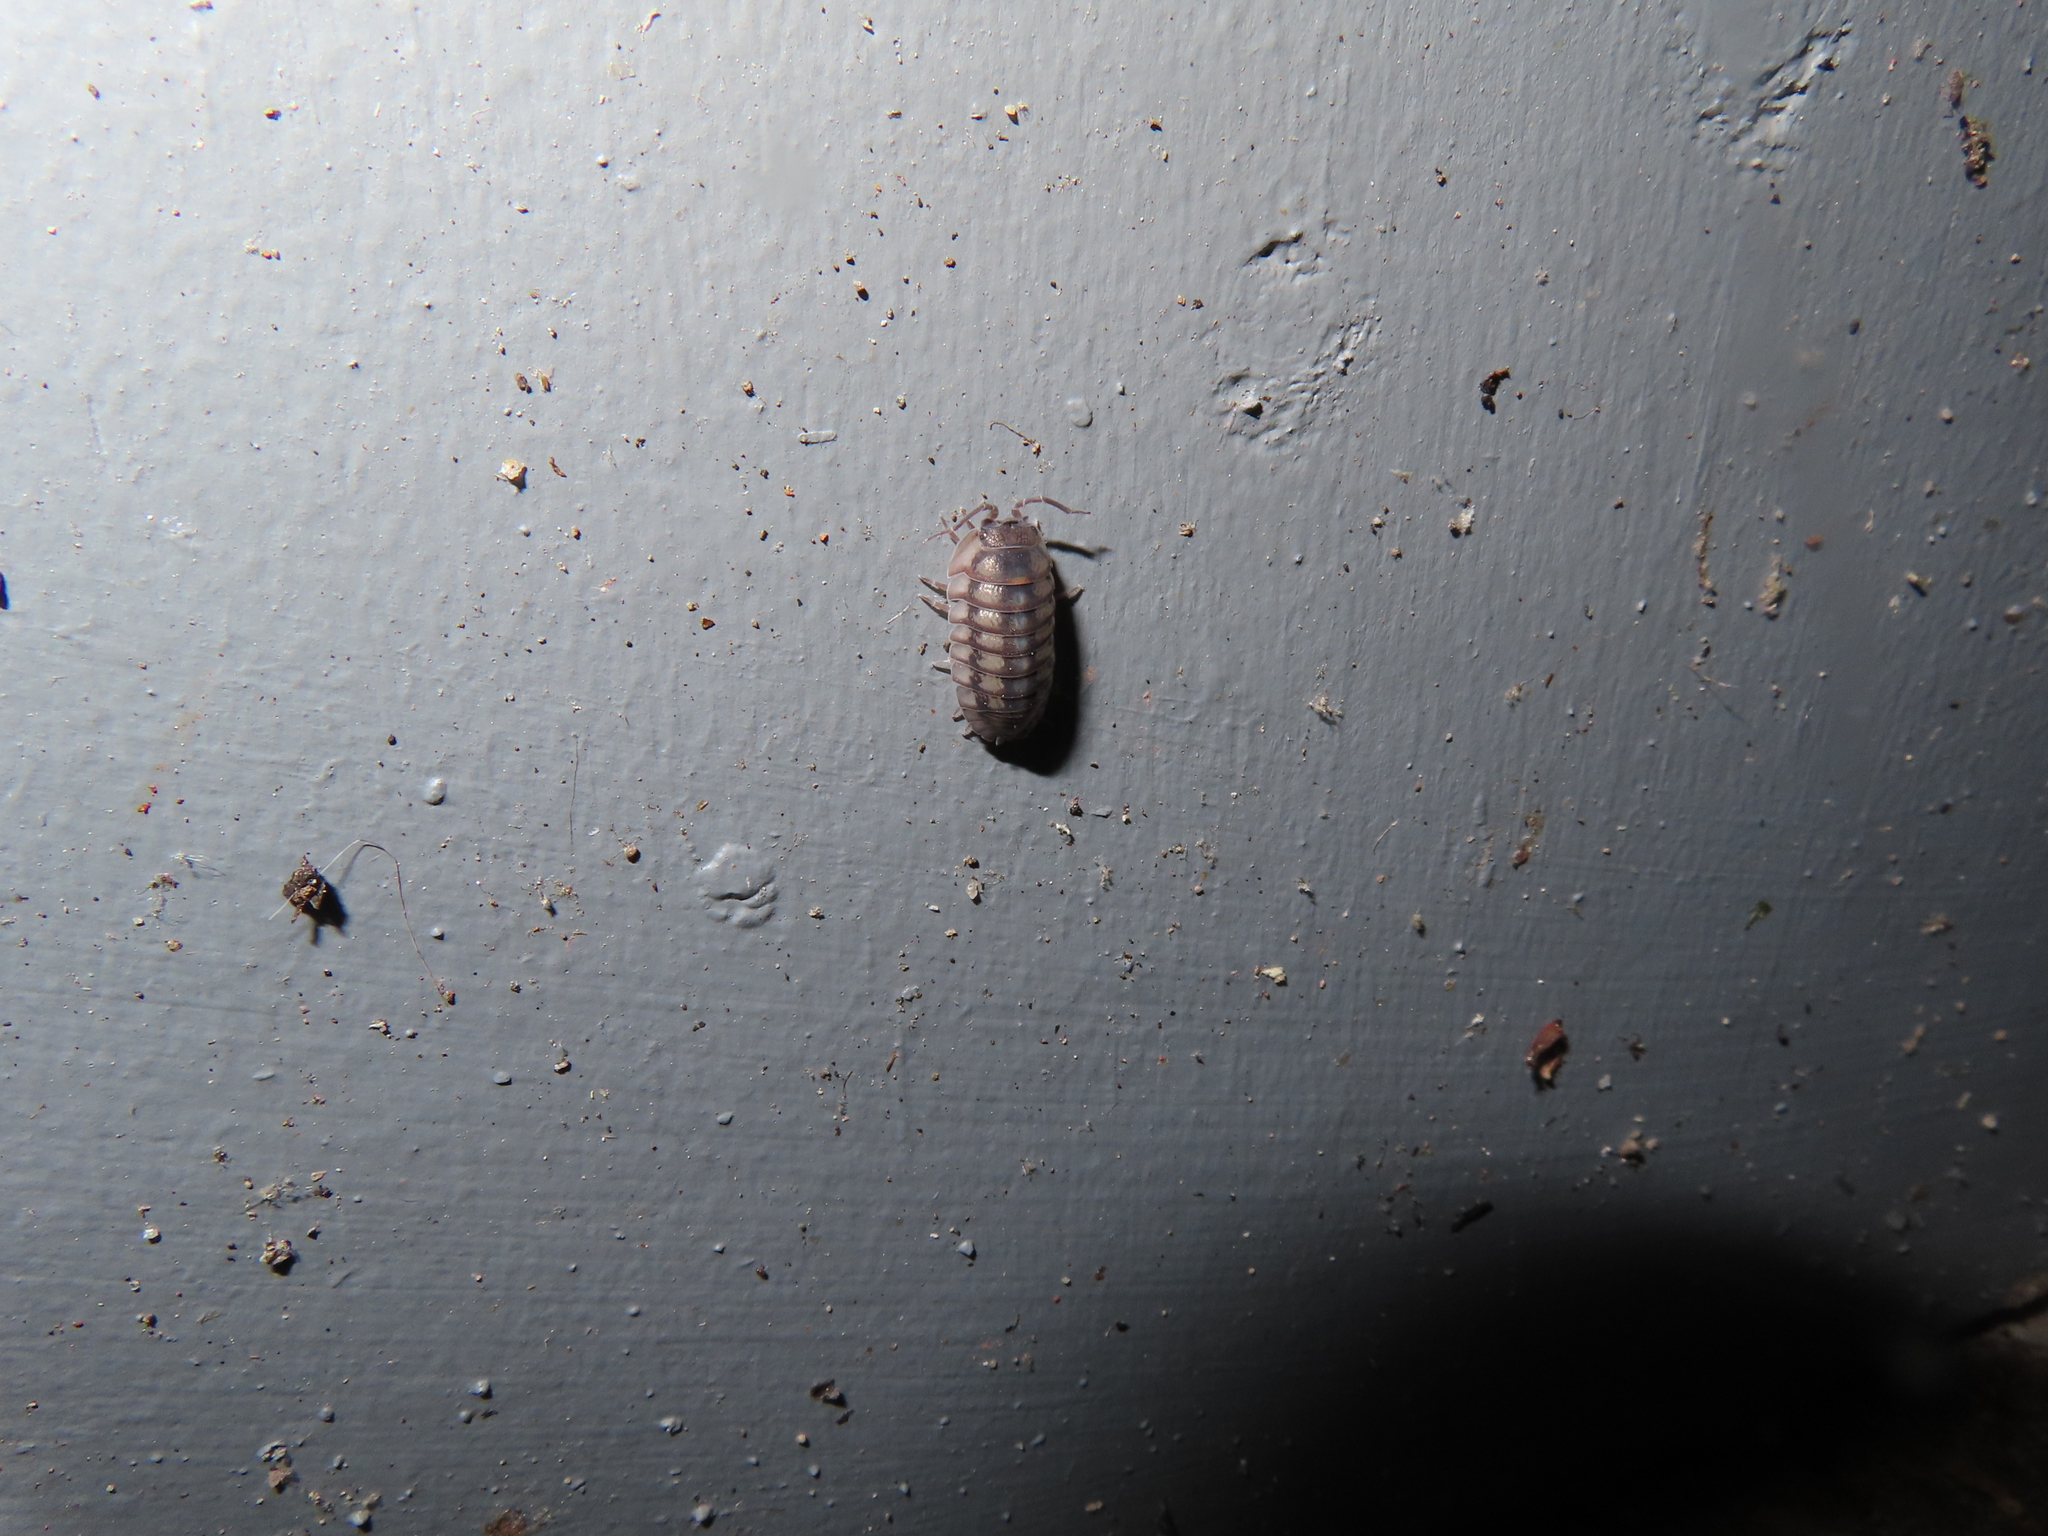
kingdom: Animalia
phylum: Arthropoda
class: Malacostraca
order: Isopoda
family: Armadillidiidae
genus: Armadillidium
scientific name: Armadillidium nasatum
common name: Isopod
